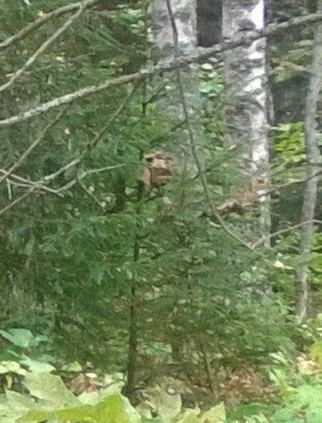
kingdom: Plantae
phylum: Tracheophyta
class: Pinopsida
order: Pinales
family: Pinaceae
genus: Picea
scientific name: Picea abies
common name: Norway spruce
